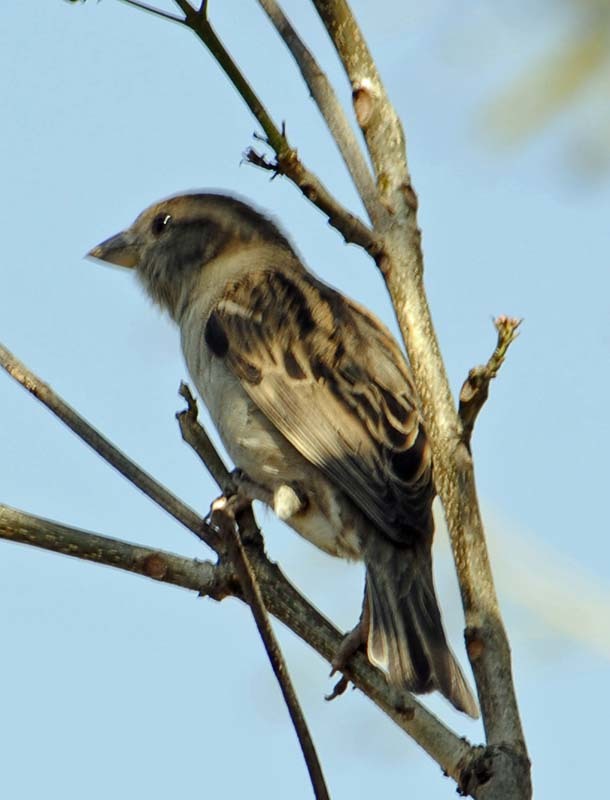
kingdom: Animalia
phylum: Chordata
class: Aves
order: Passeriformes
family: Passeridae
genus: Passer
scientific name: Passer domesticus
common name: House sparrow
